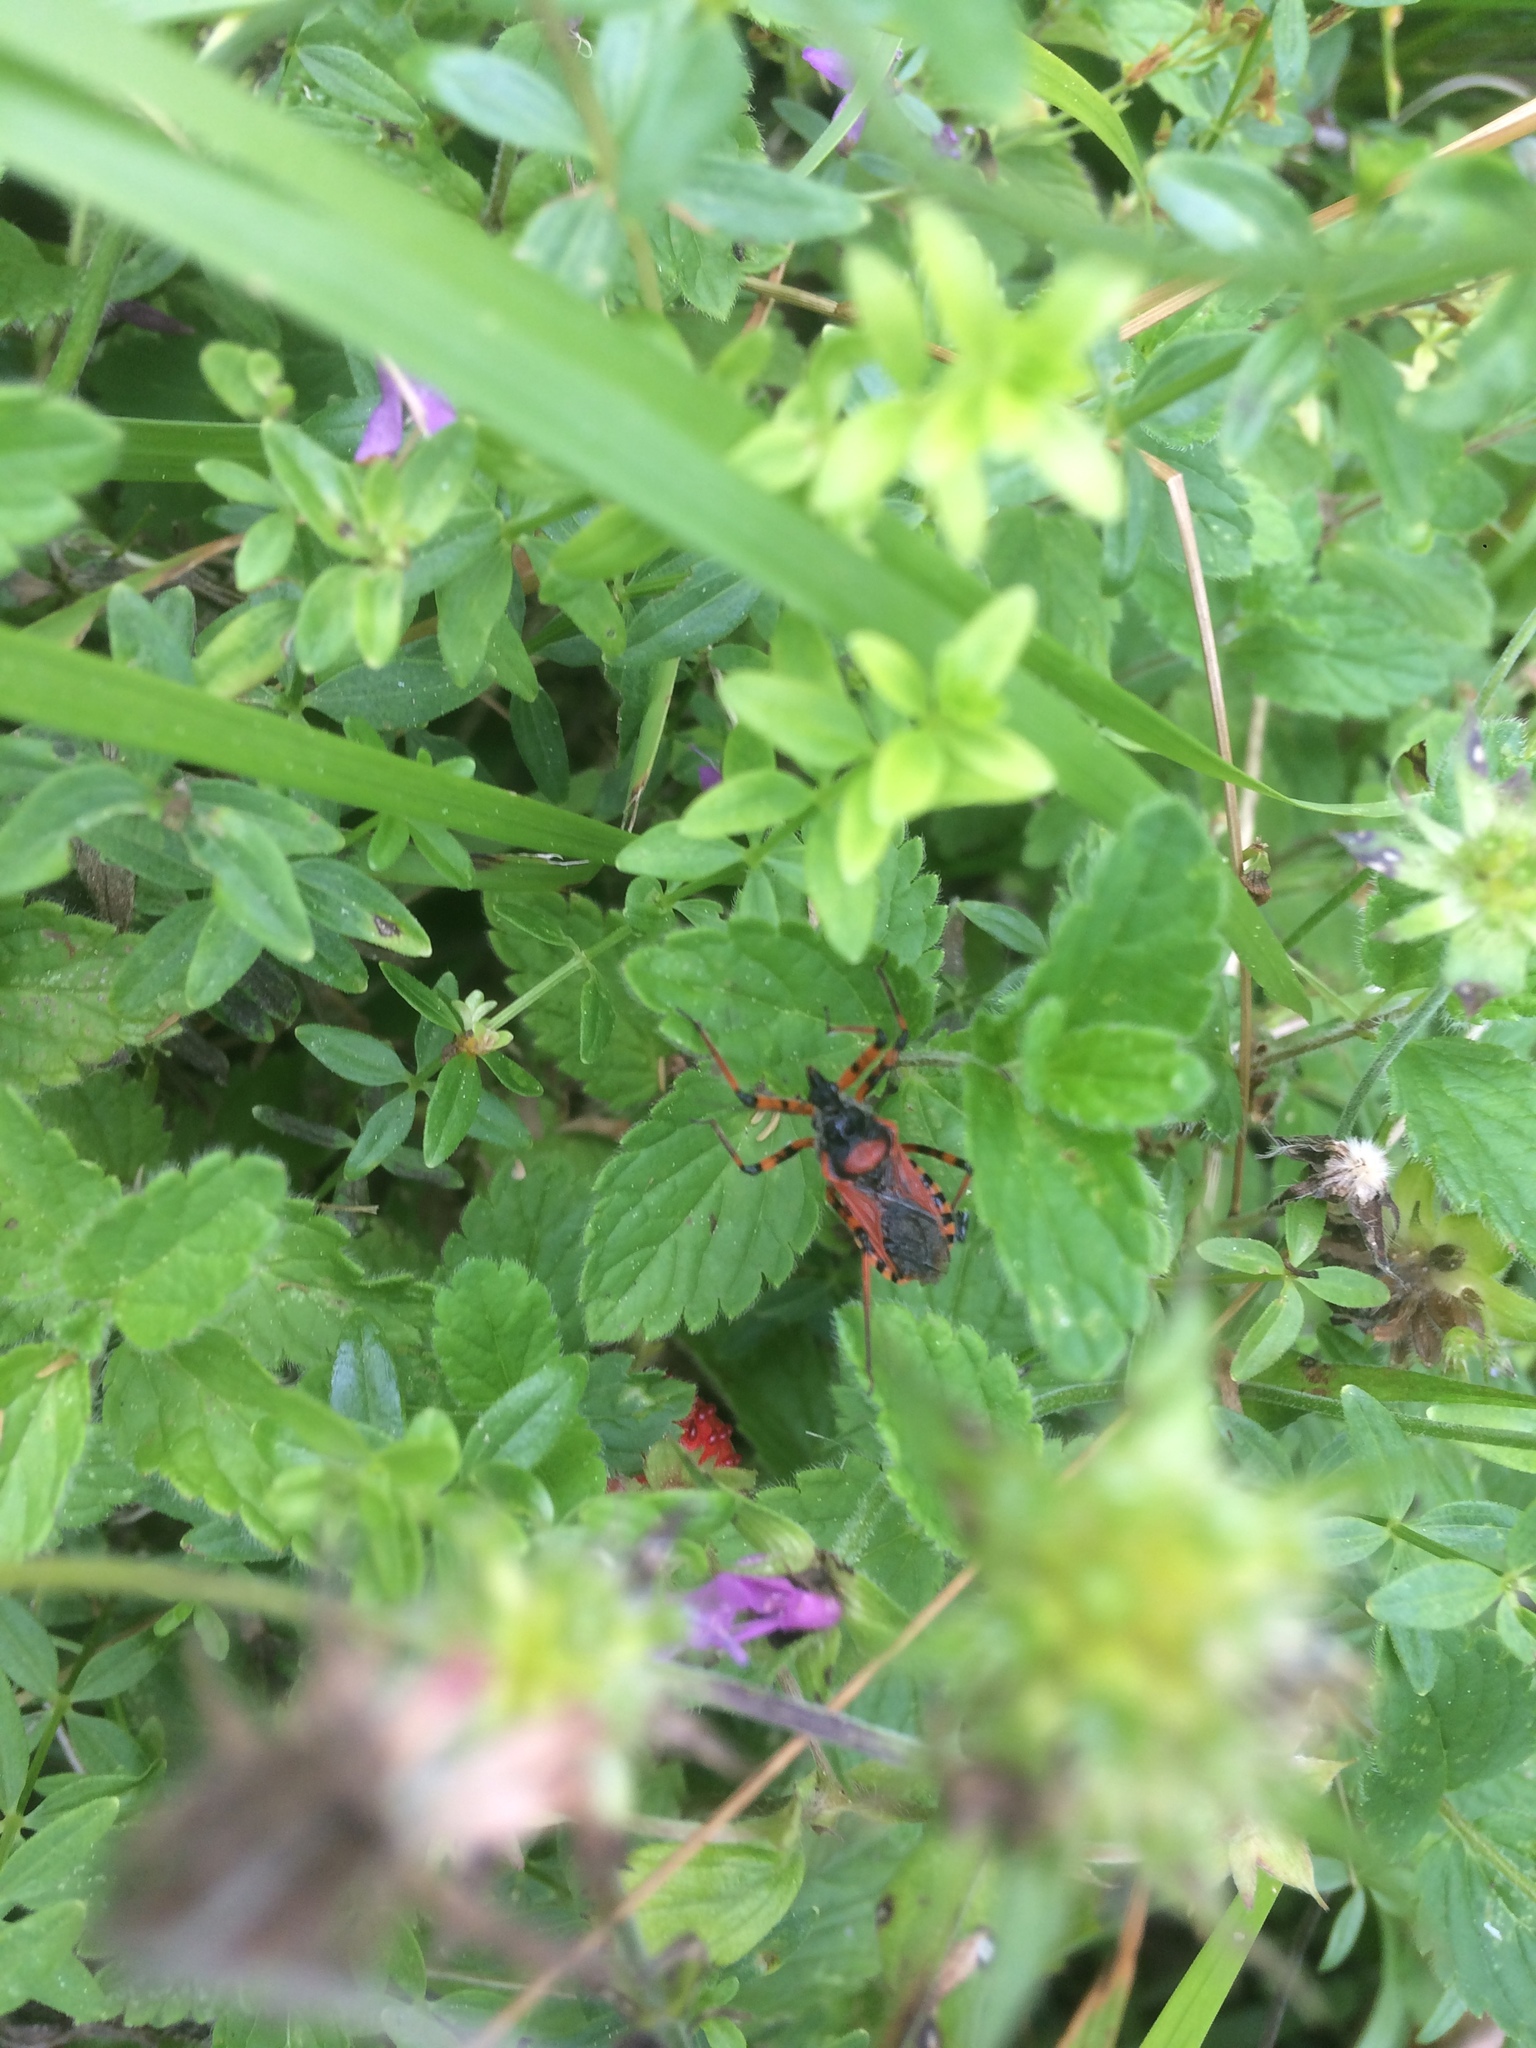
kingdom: Animalia
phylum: Arthropoda
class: Insecta
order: Hemiptera
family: Reduviidae
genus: Rhynocoris
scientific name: Rhynocoris iracundus
